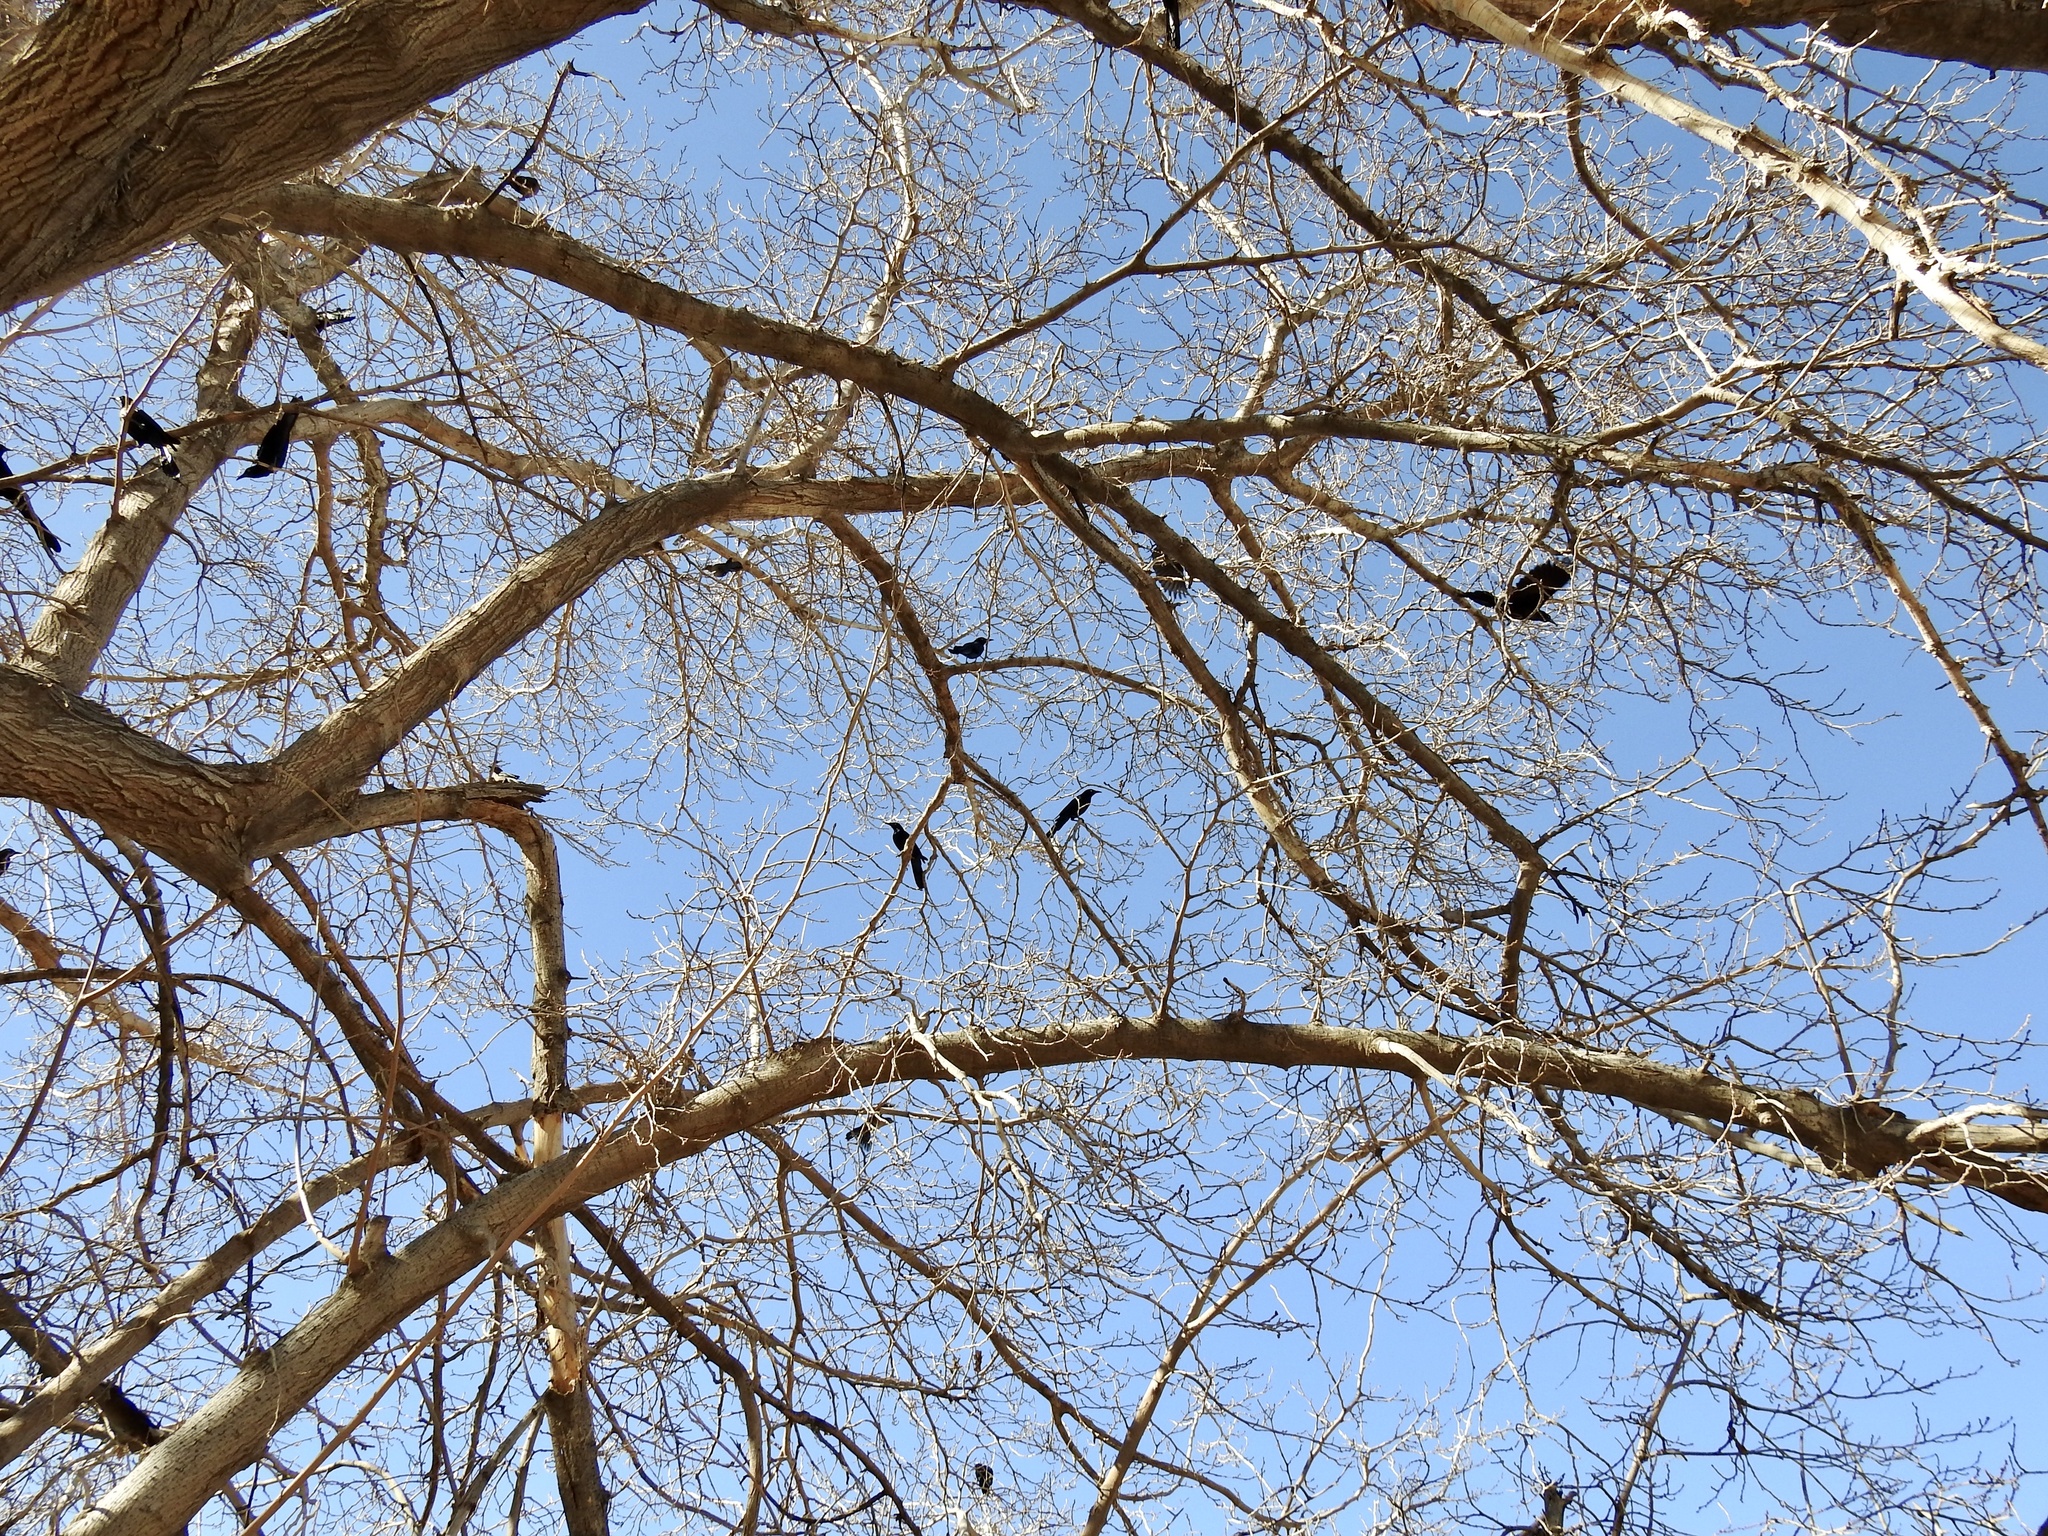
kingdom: Animalia
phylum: Chordata
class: Aves
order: Passeriformes
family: Icteridae
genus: Quiscalus
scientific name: Quiscalus mexicanus
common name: Great-tailed grackle
